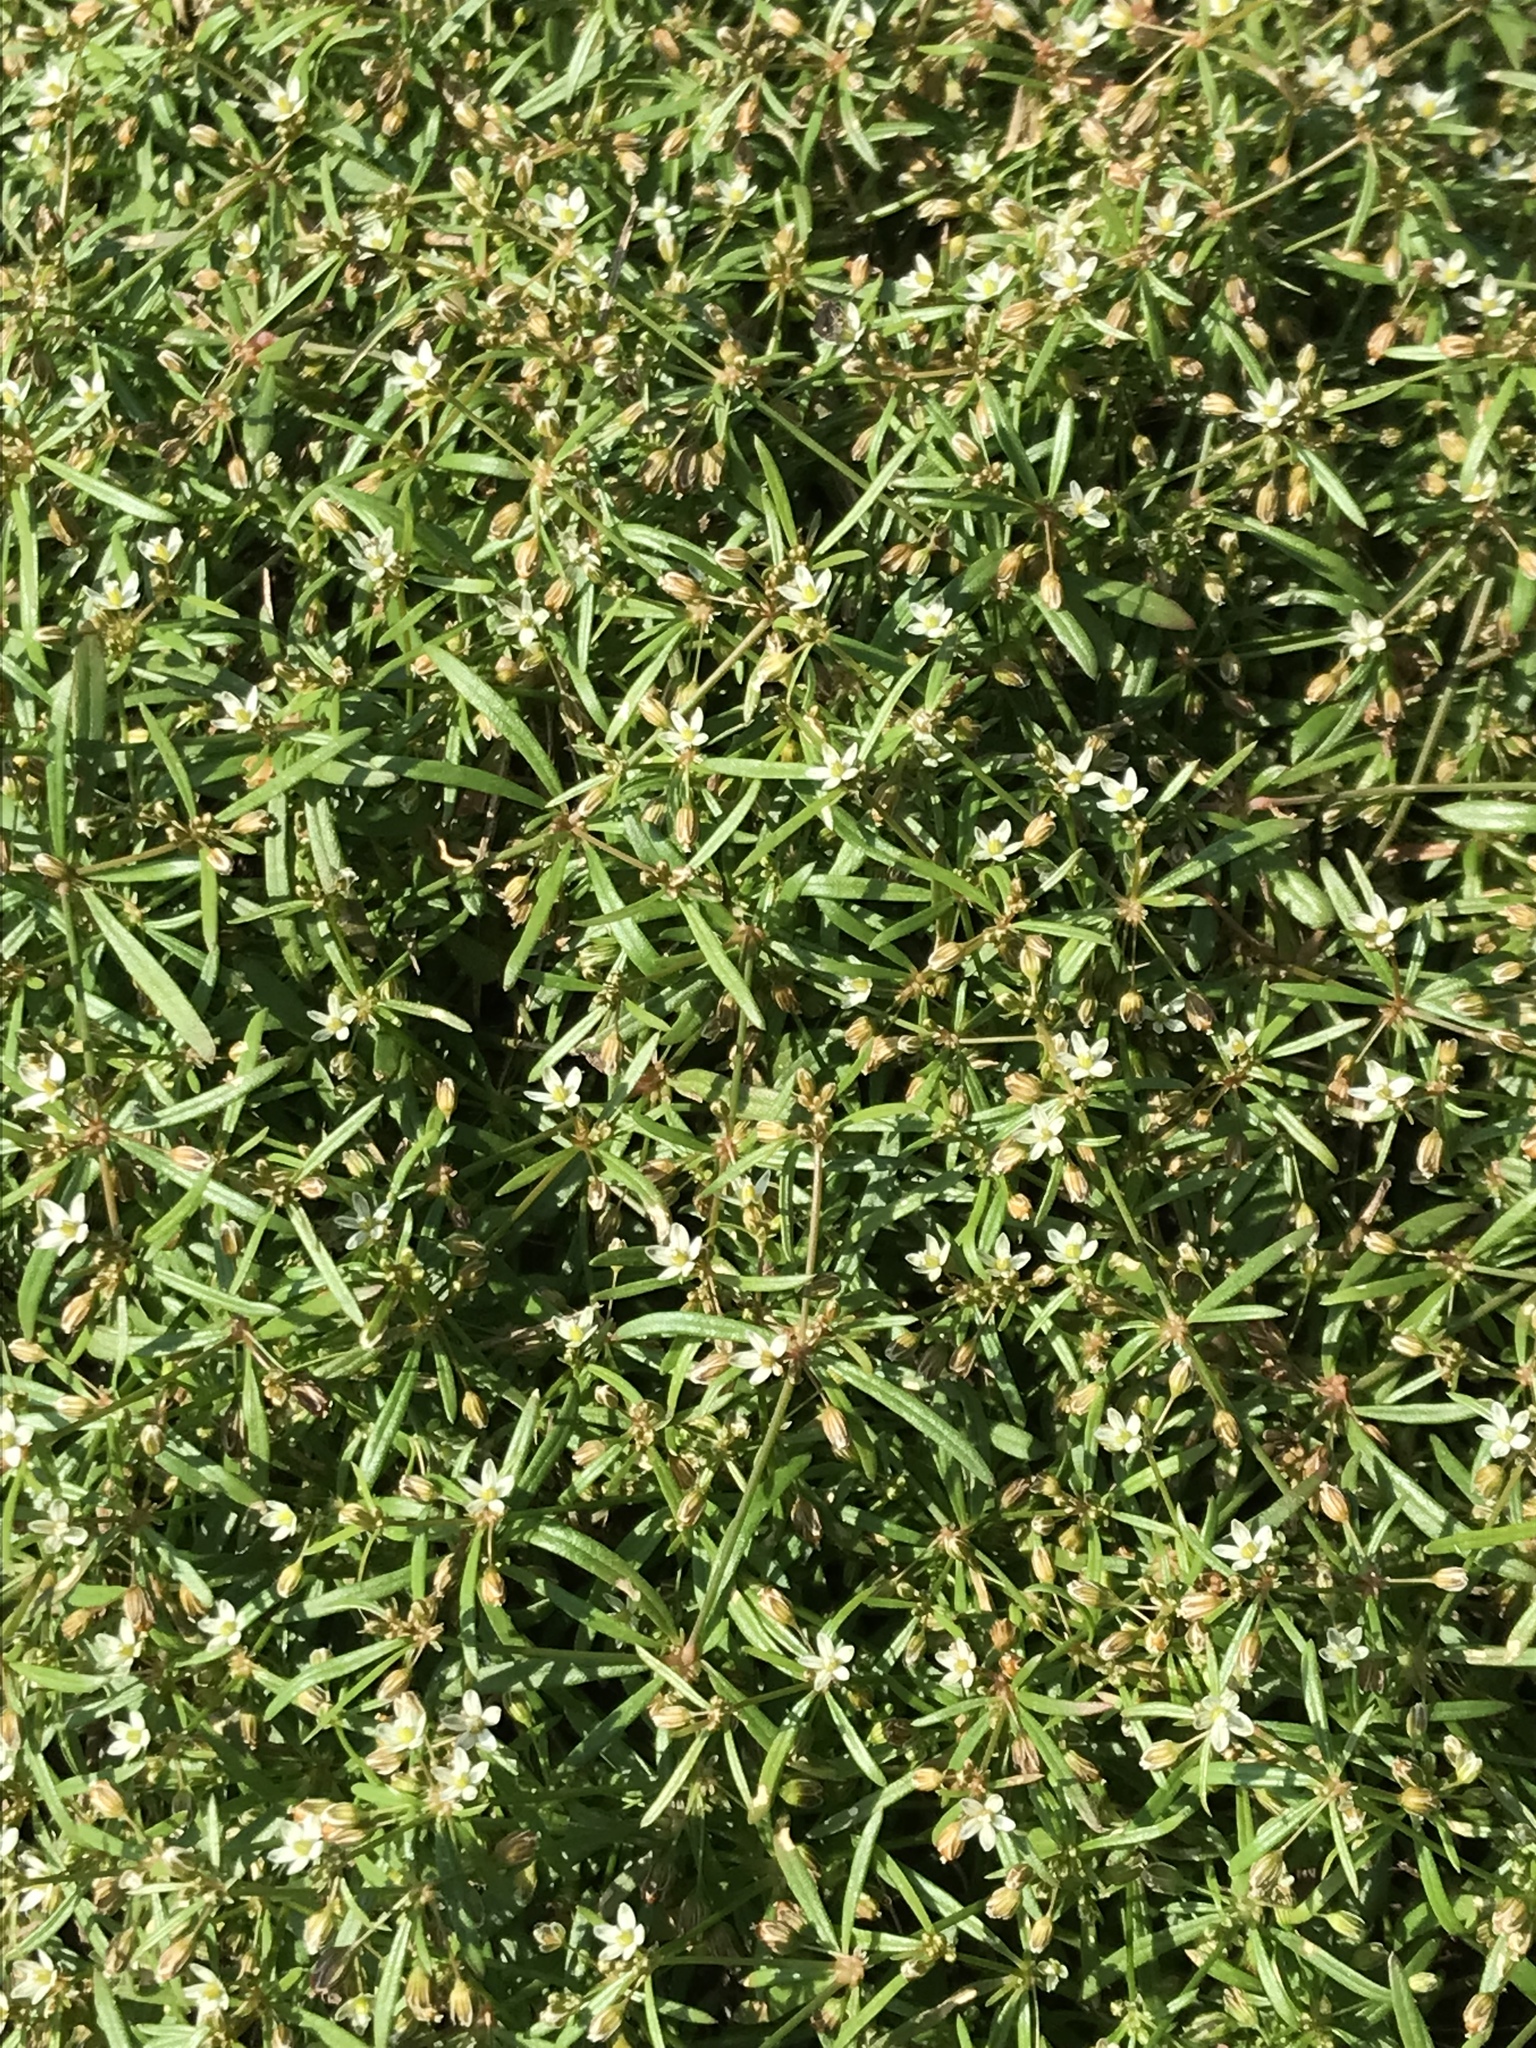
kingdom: Plantae
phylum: Tracheophyta
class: Magnoliopsida
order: Caryophyllales
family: Molluginaceae
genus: Mollugo
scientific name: Mollugo verticillata
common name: Green carpetweed
